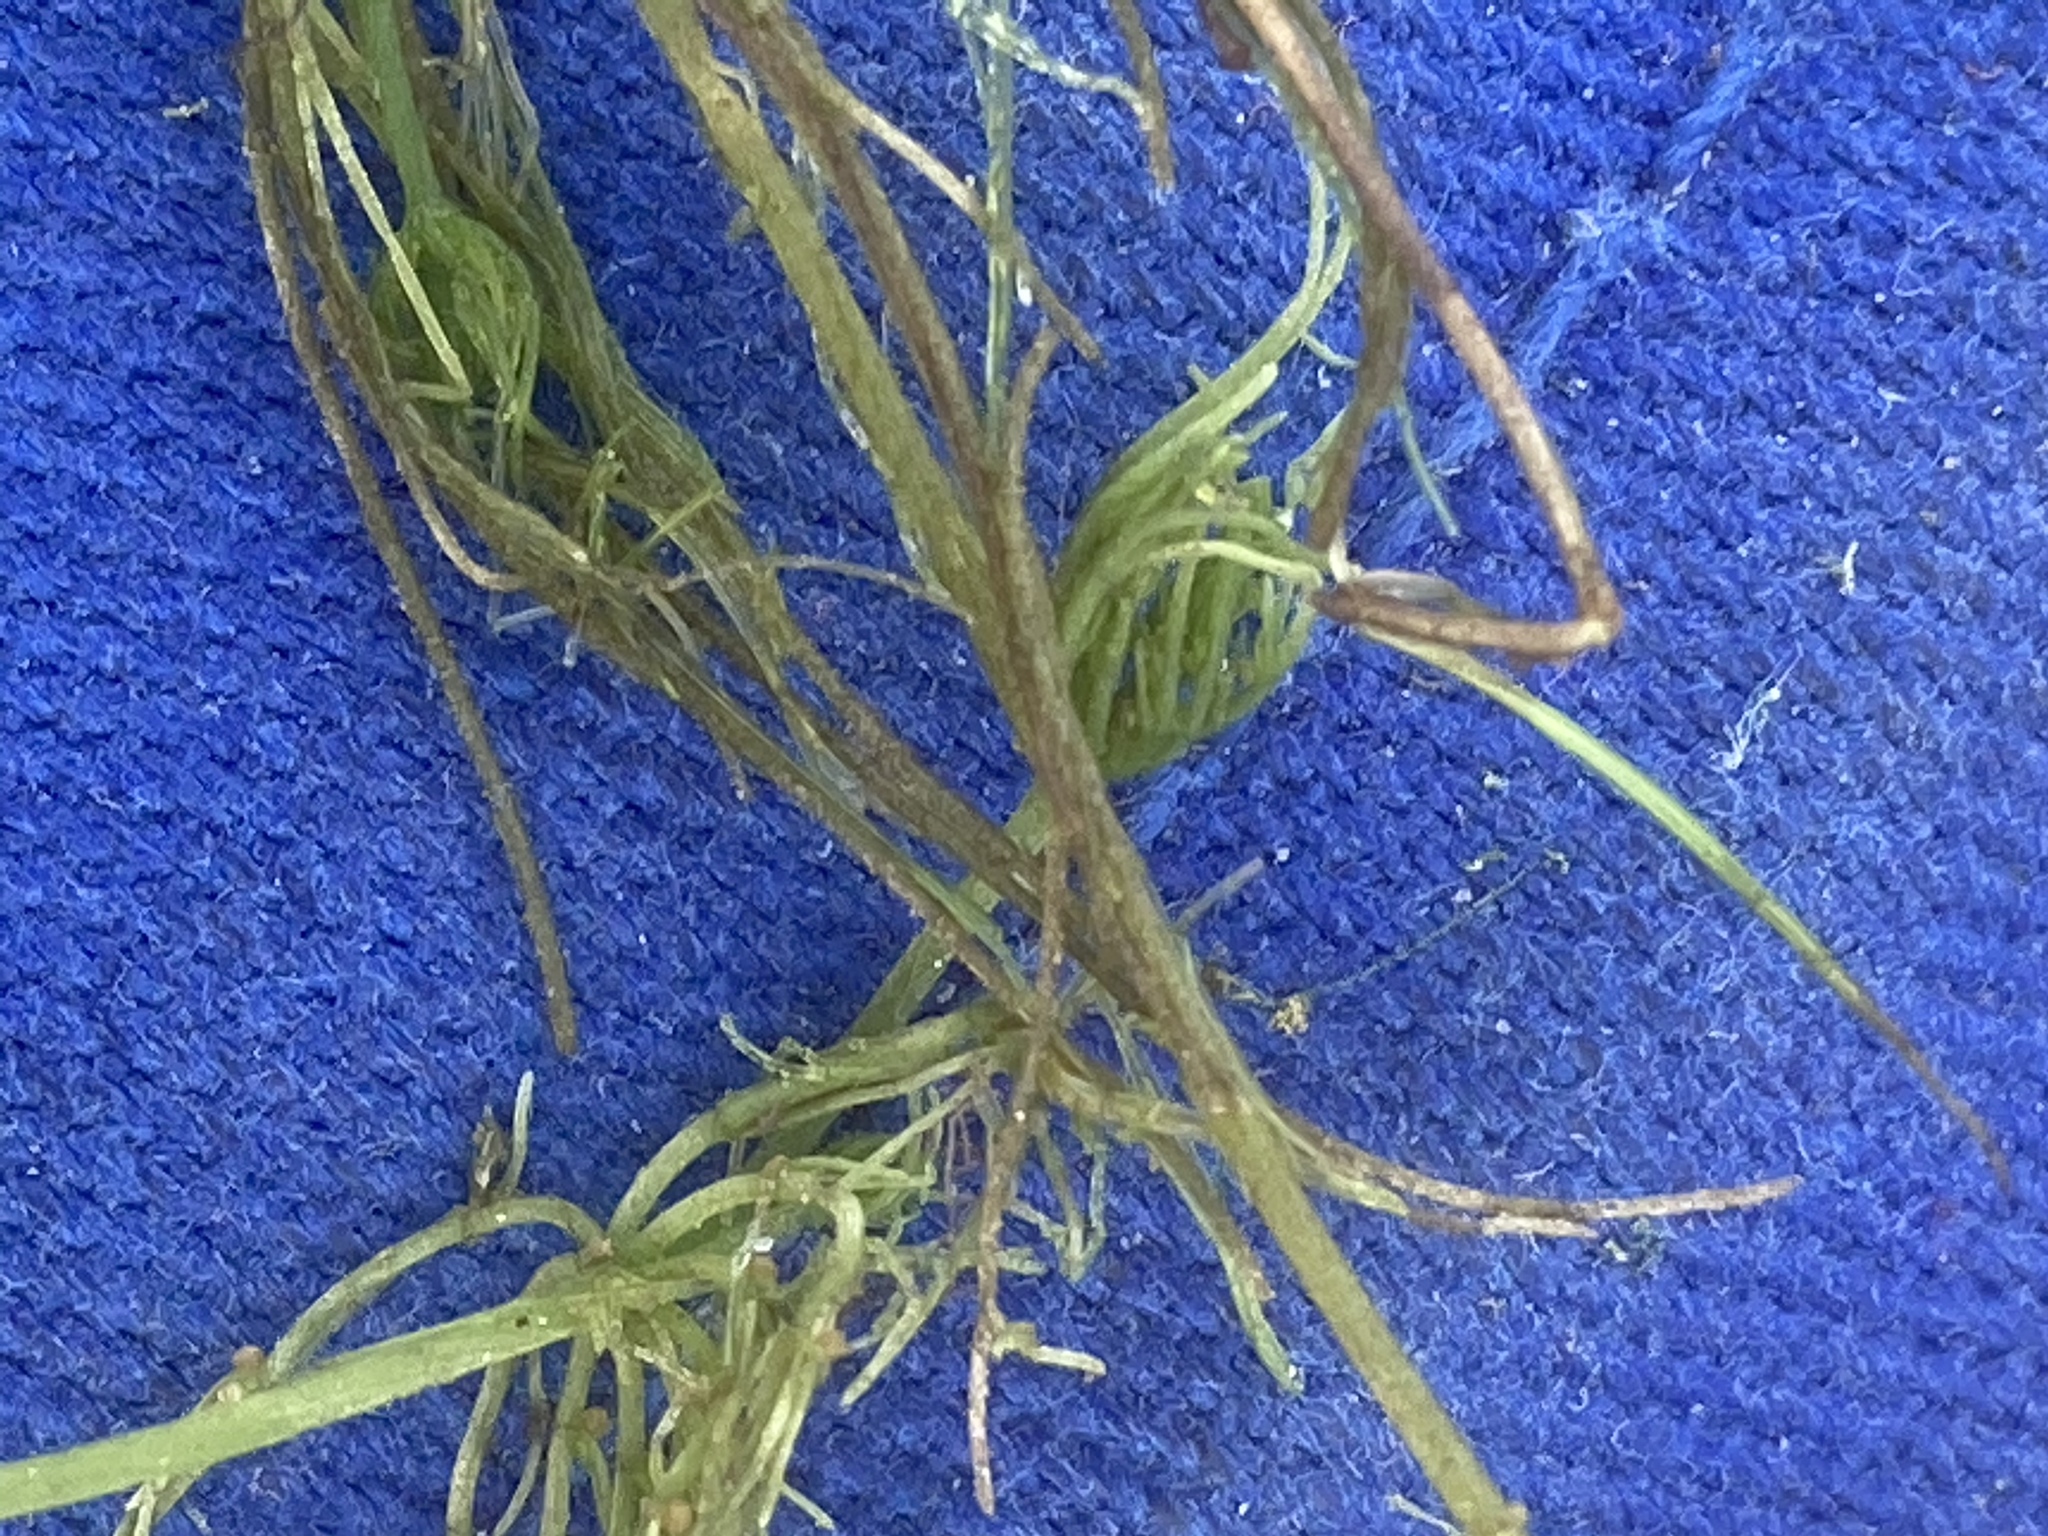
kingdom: Plantae
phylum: Charophyta
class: Charophyceae
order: Charales
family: Characeae
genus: Chara
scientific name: Chara vulgaris
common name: Common stonewort
